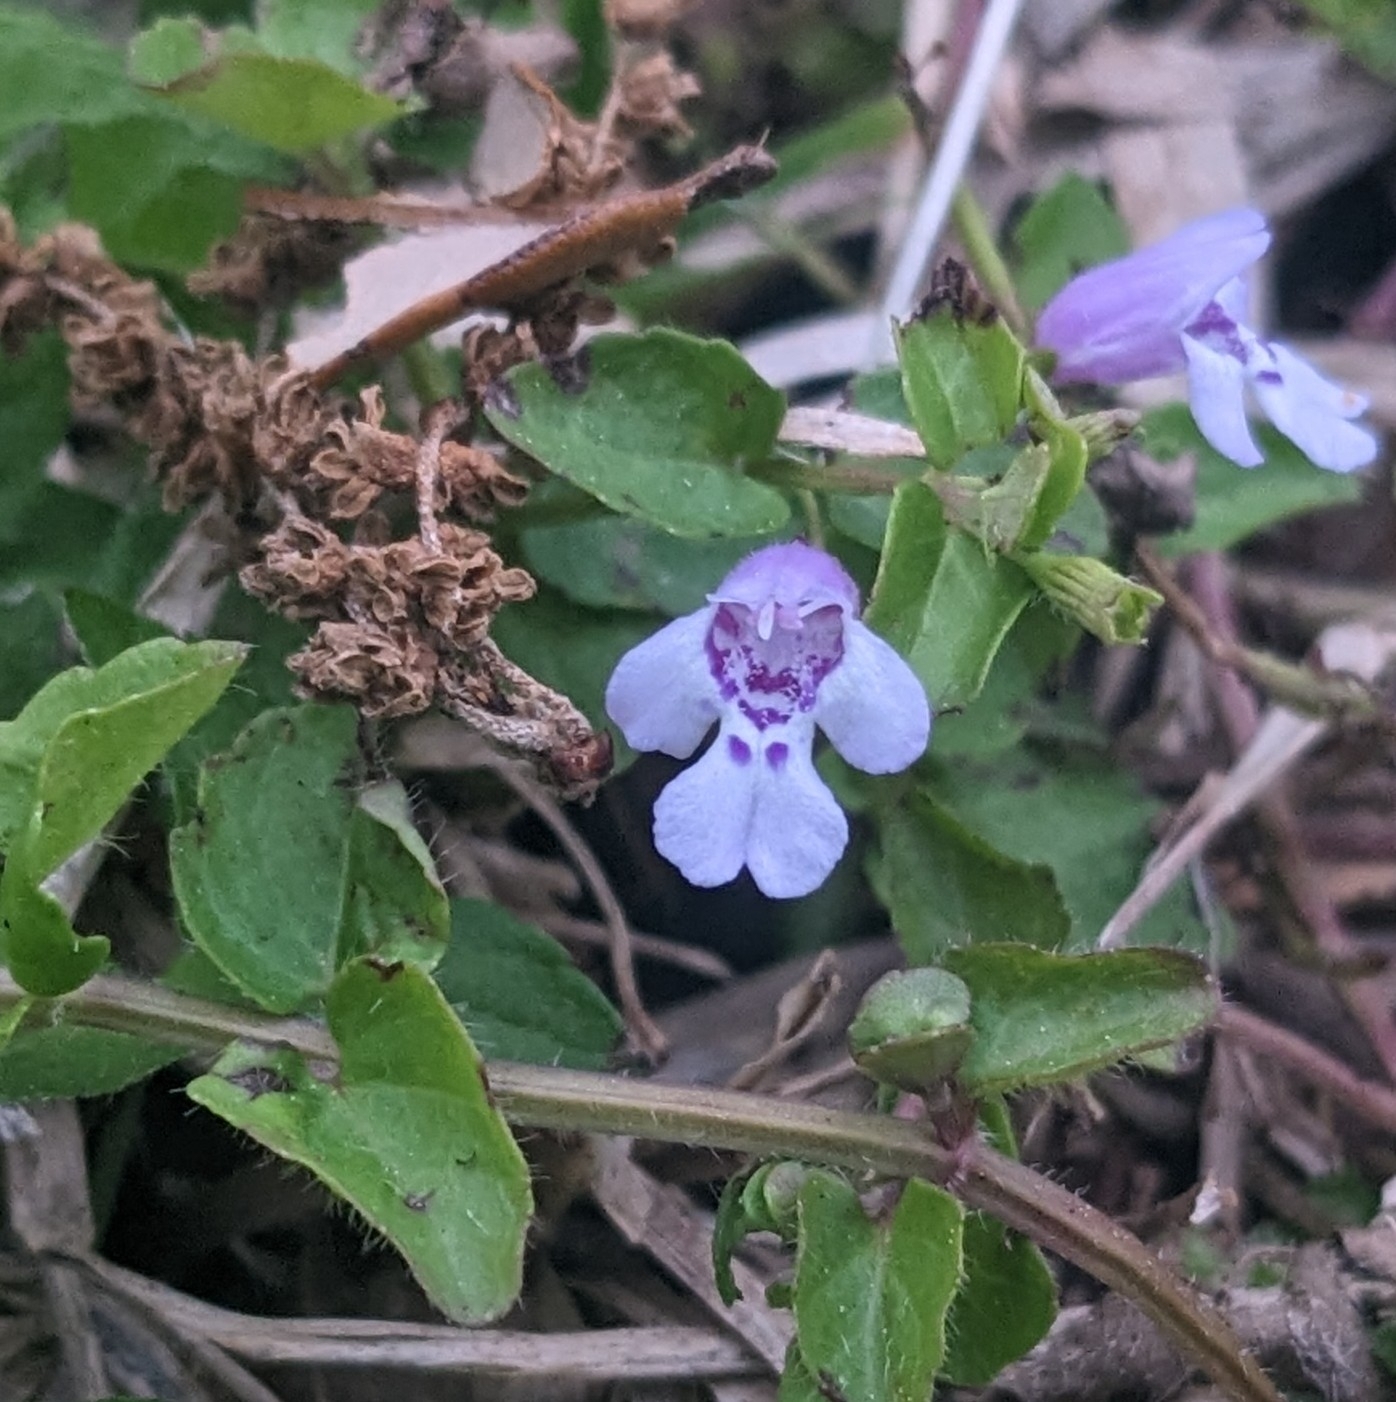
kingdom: Plantae
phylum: Tracheophyta
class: Magnoliopsida
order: Lamiales
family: Lamiaceae
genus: Clinopodium
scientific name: Clinopodium brownei
